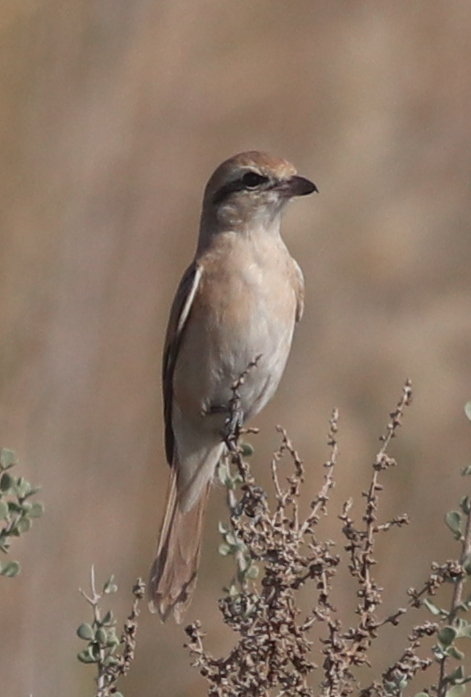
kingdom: Animalia
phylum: Chordata
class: Aves
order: Passeriformes
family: Laniidae
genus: Lanius
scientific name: Lanius isabellinus
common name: Isabelline shrike
